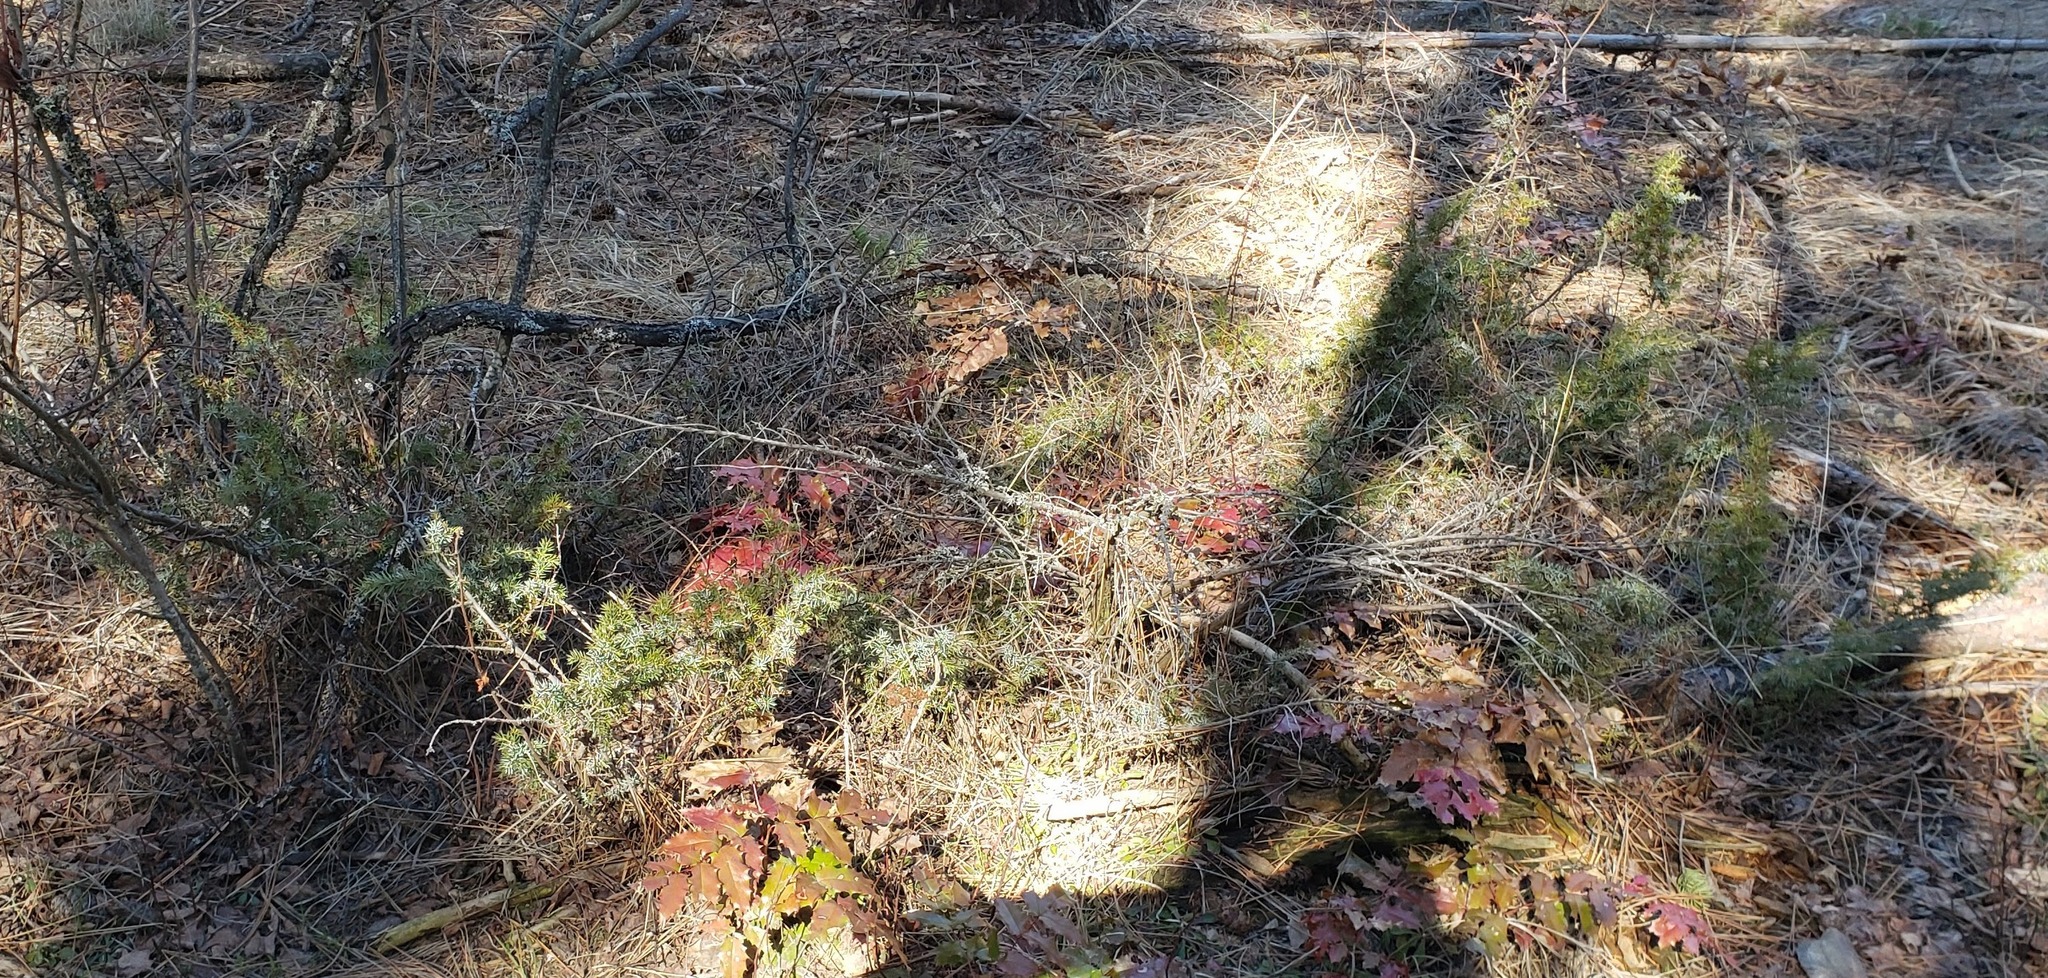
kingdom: Plantae
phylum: Tracheophyta
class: Pinopsida
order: Pinales
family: Cupressaceae
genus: Juniperus
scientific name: Juniperus communis
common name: Common juniper
